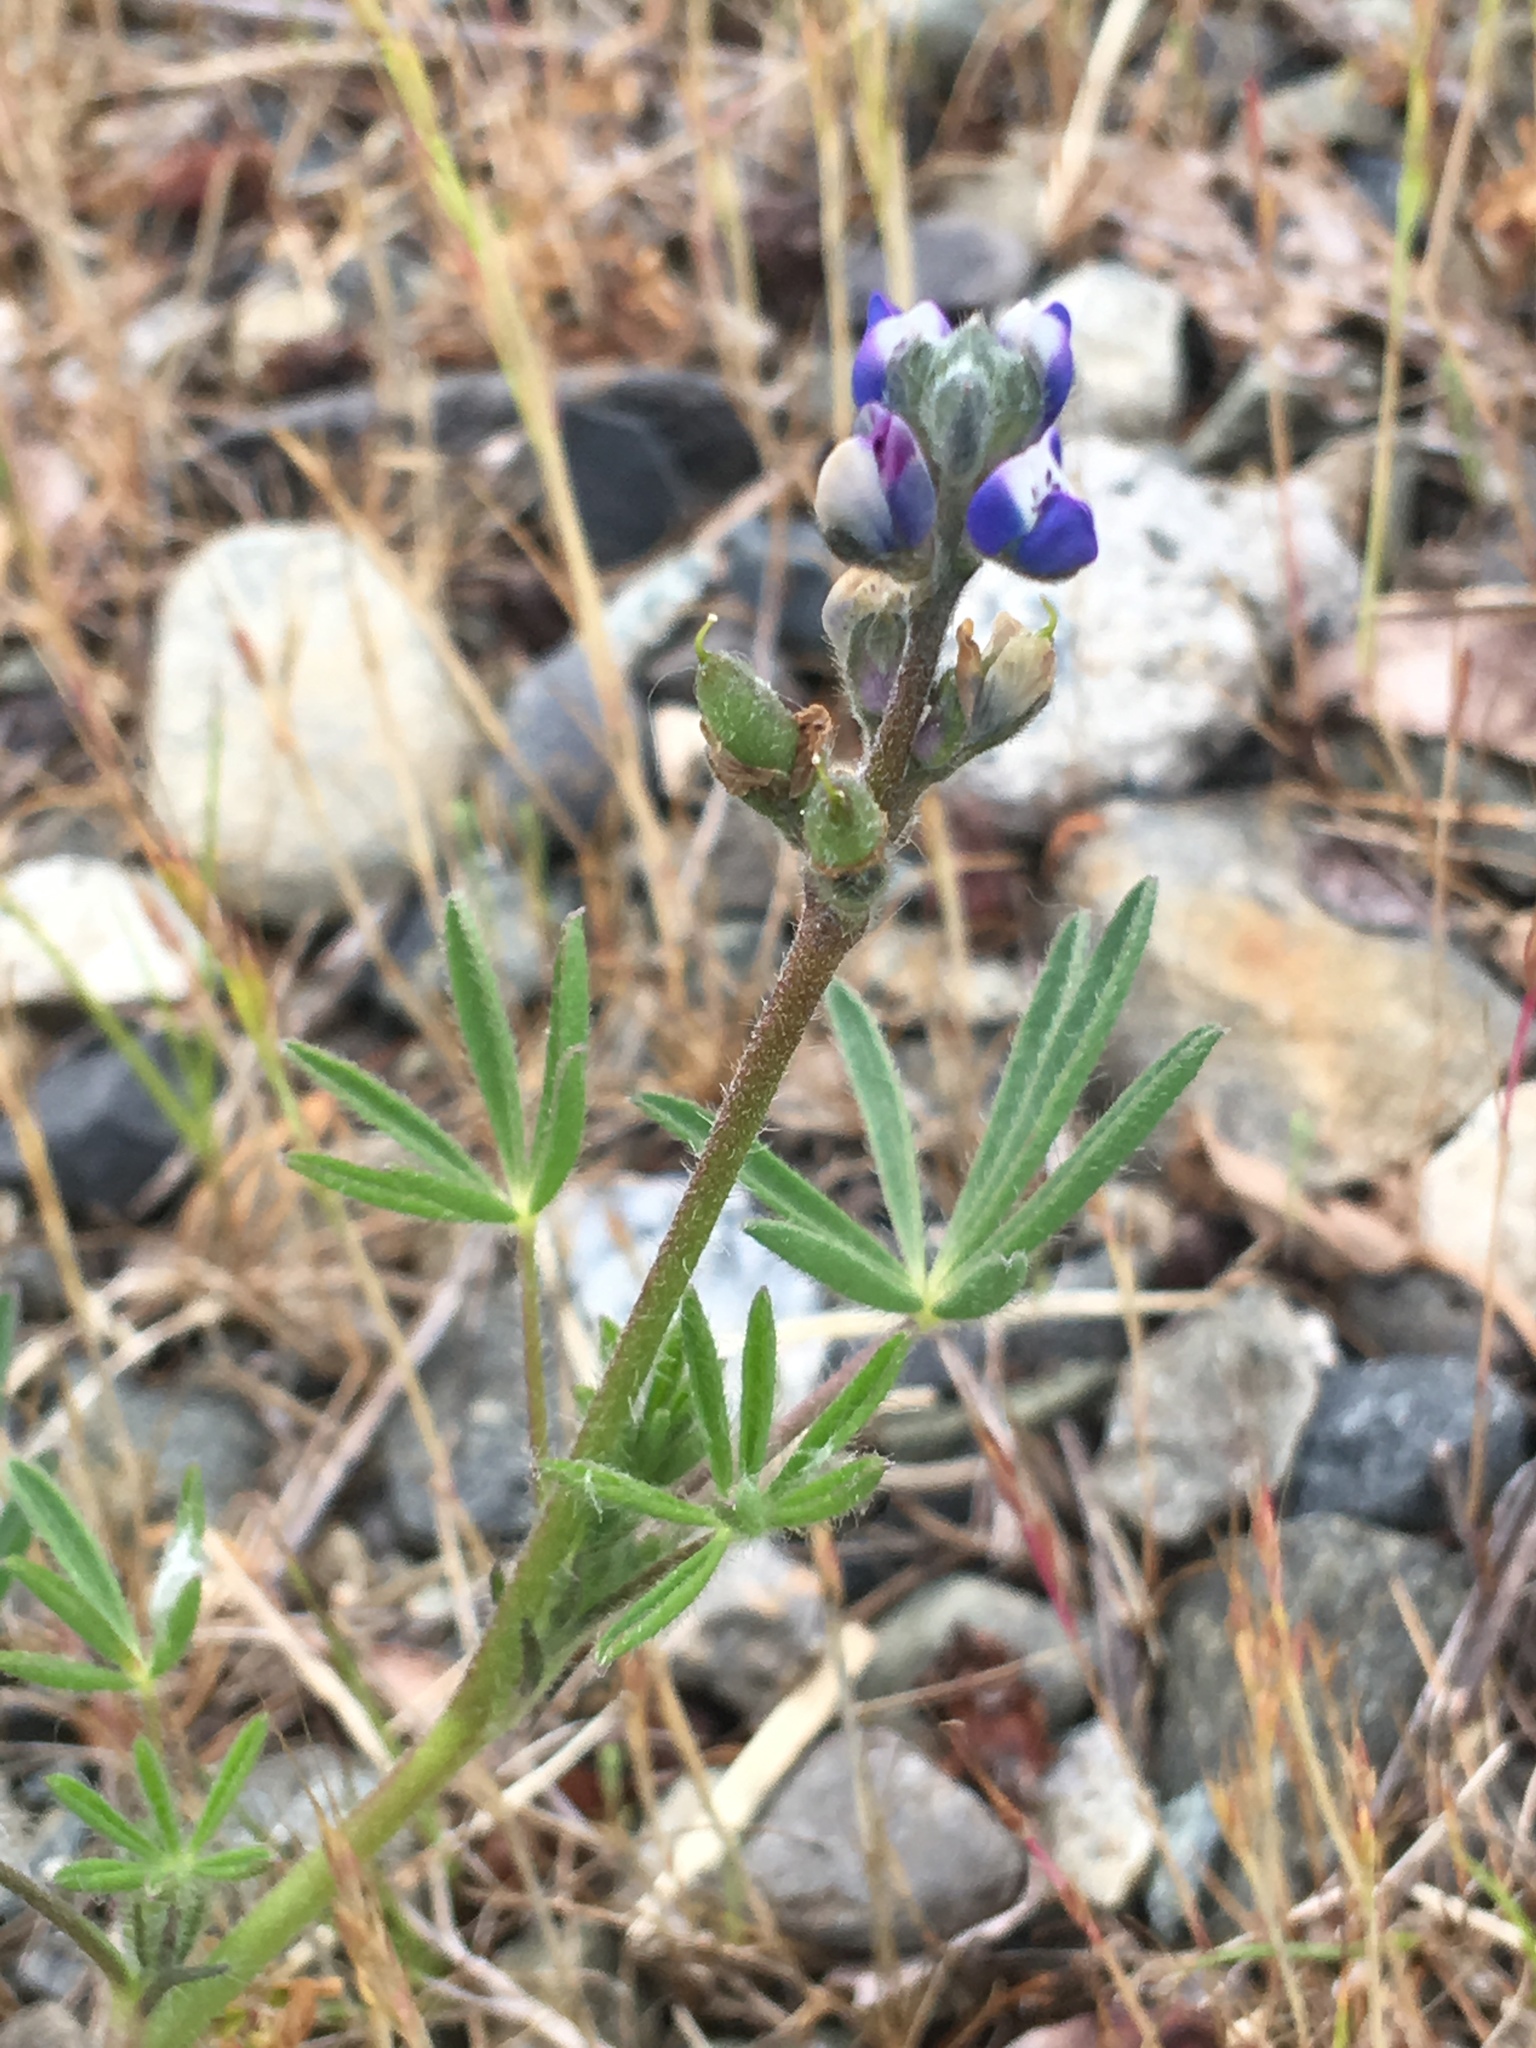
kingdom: Plantae
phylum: Tracheophyta
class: Magnoliopsida
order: Fabales
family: Fabaceae
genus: Lupinus
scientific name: Lupinus bicolor
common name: Miniature lupine
